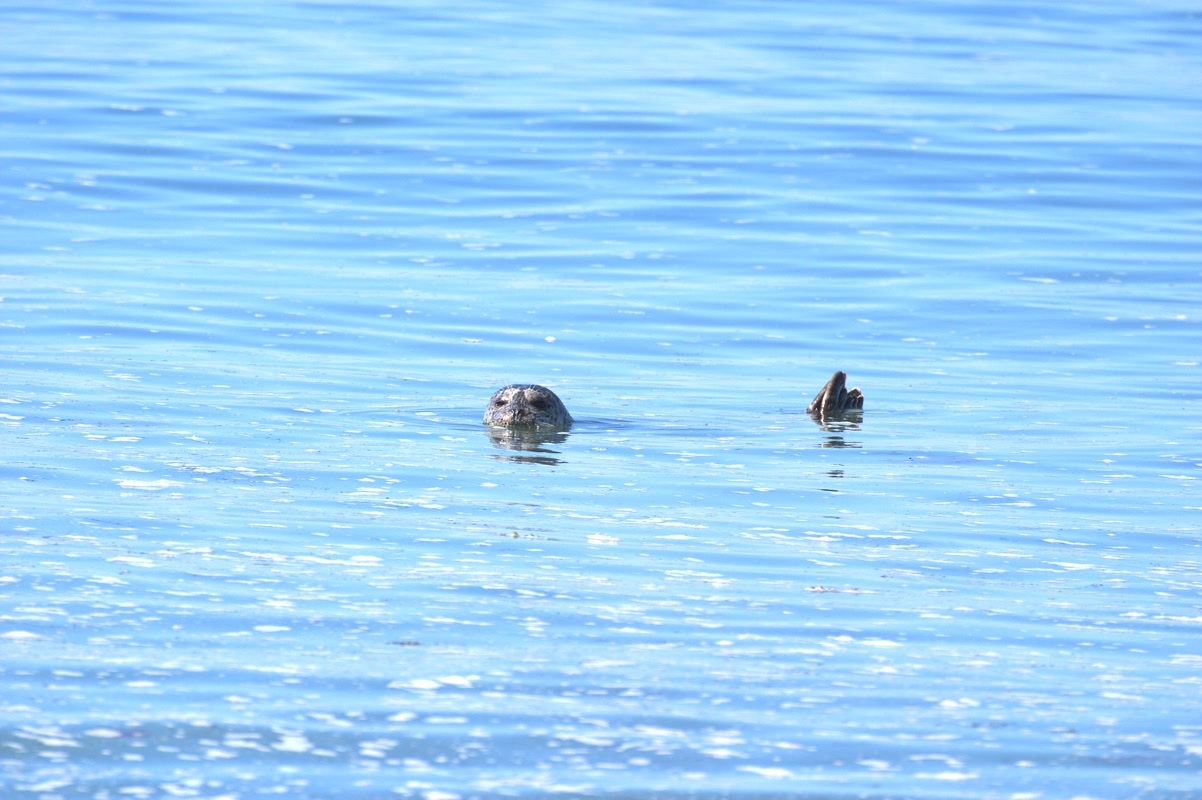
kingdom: Animalia
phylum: Chordata
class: Mammalia
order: Carnivora
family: Phocidae
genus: Phoca
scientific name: Phoca vitulina
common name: Harbor seal
